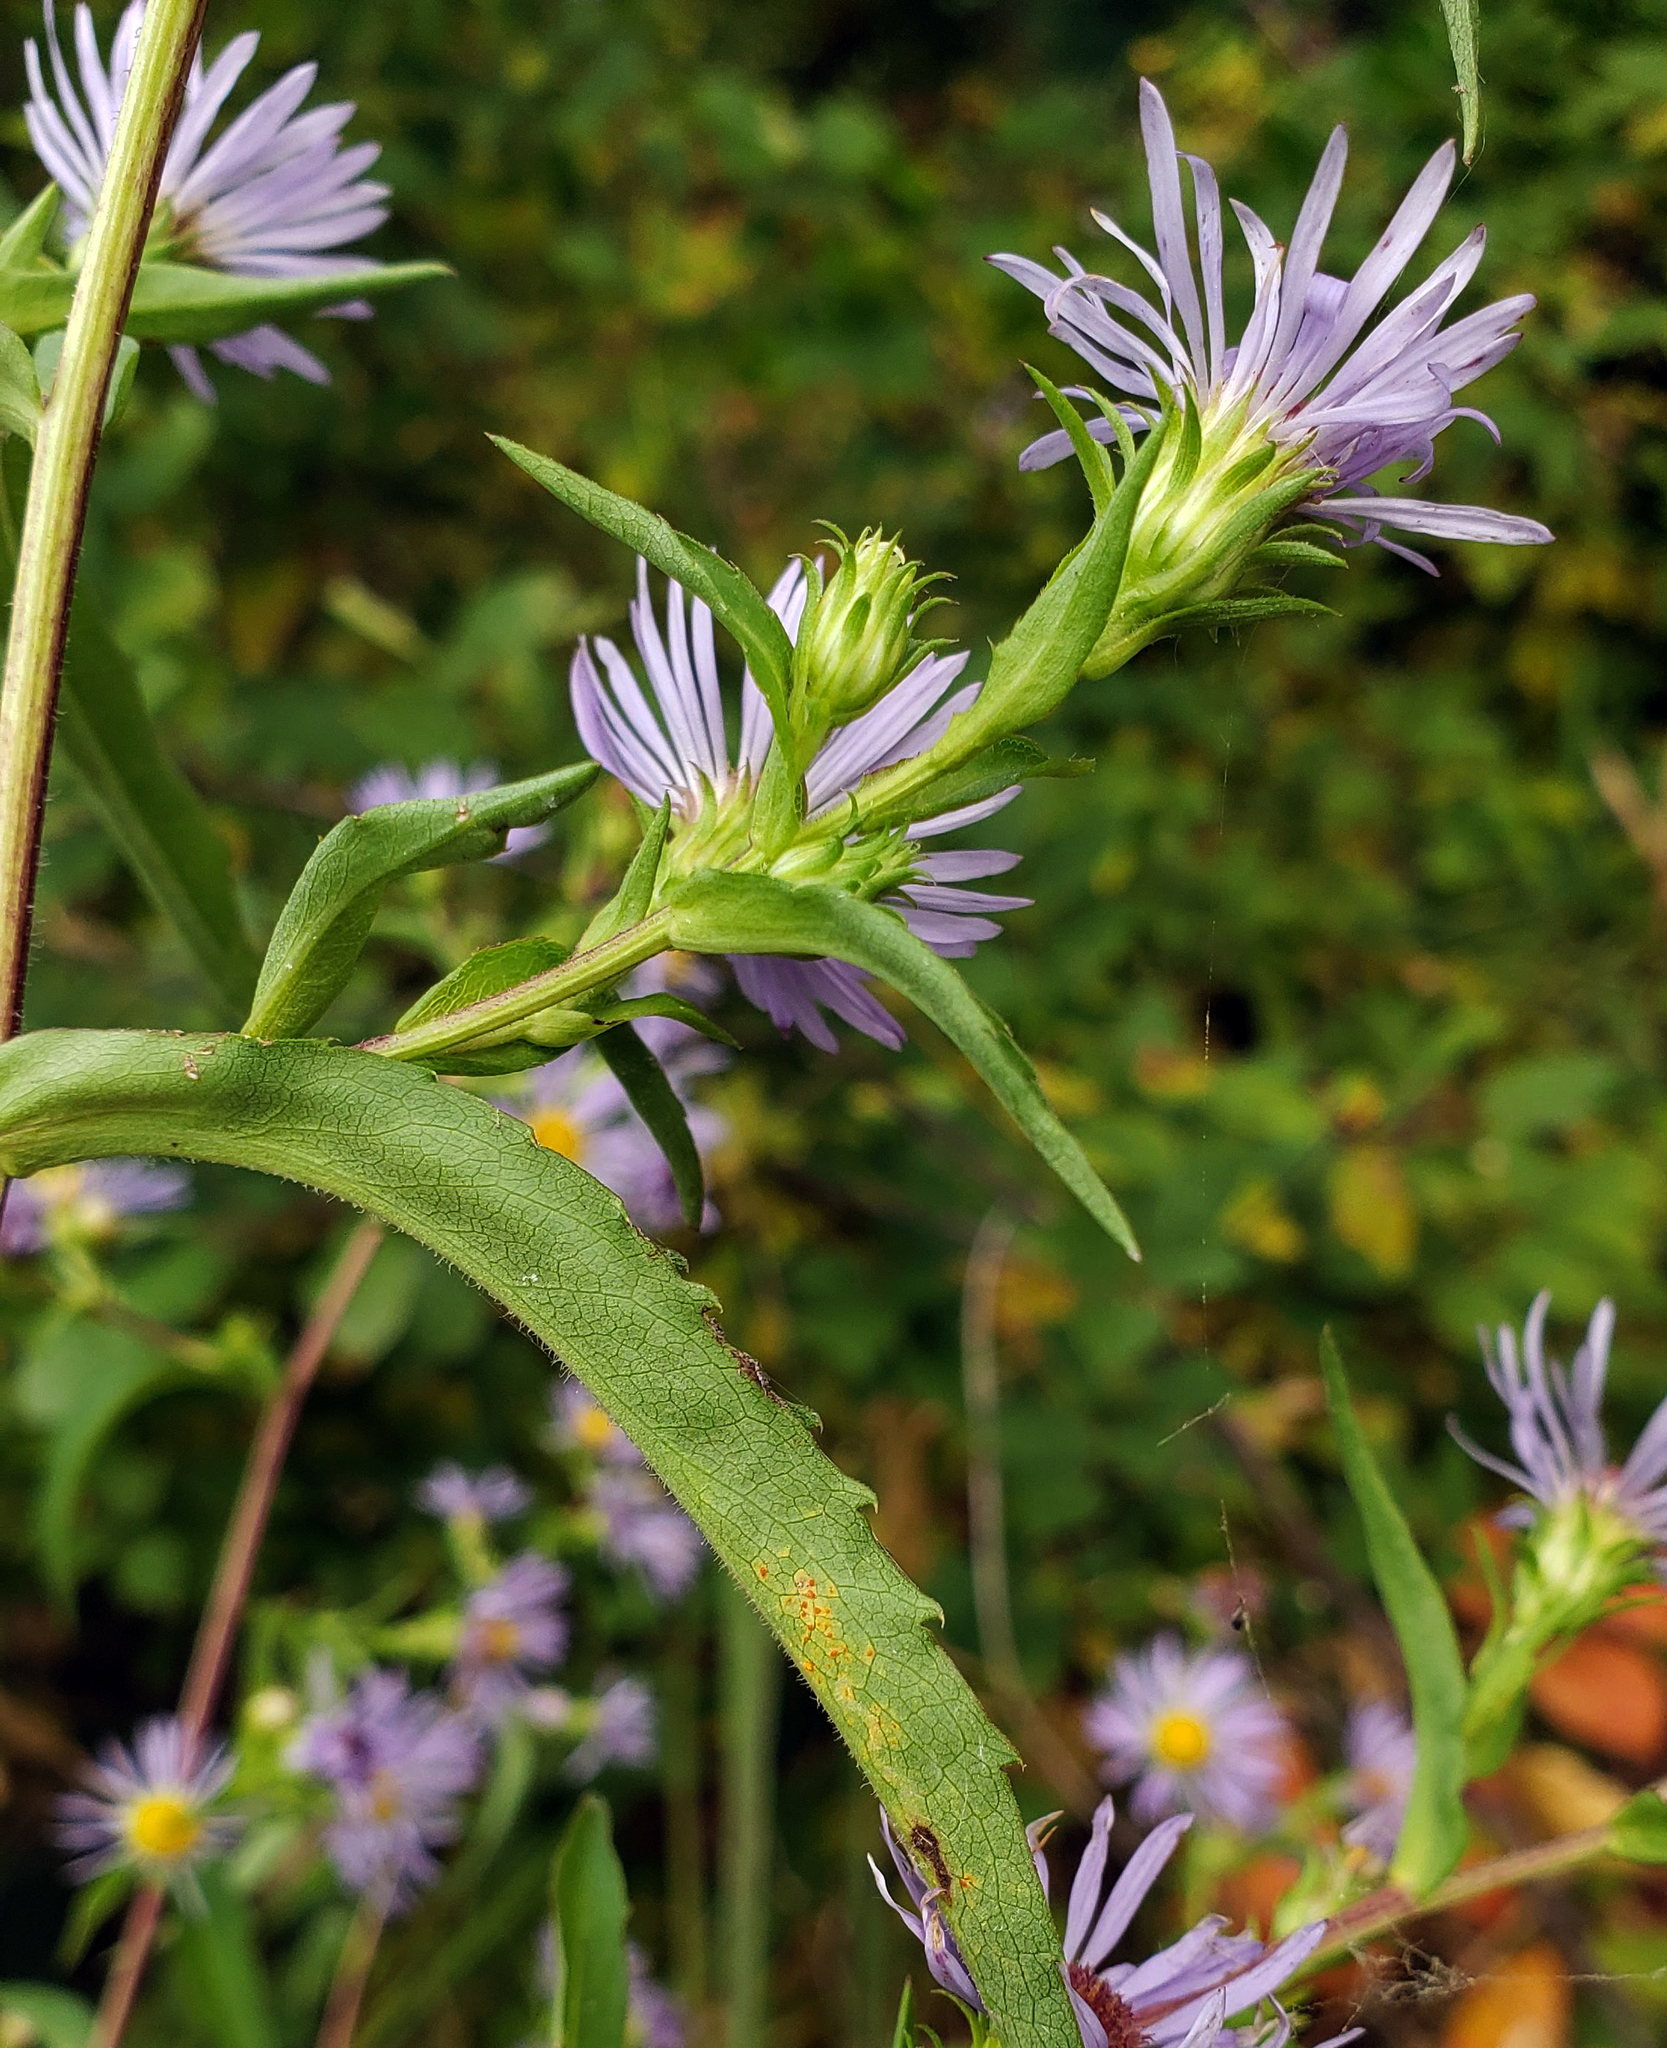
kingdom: Plantae
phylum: Tracheophyta
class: Magnoliopsida
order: Asterales
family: Asteraceae
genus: Symphyotrichum
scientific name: Symphyotrichum puniceum
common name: Bog aster
